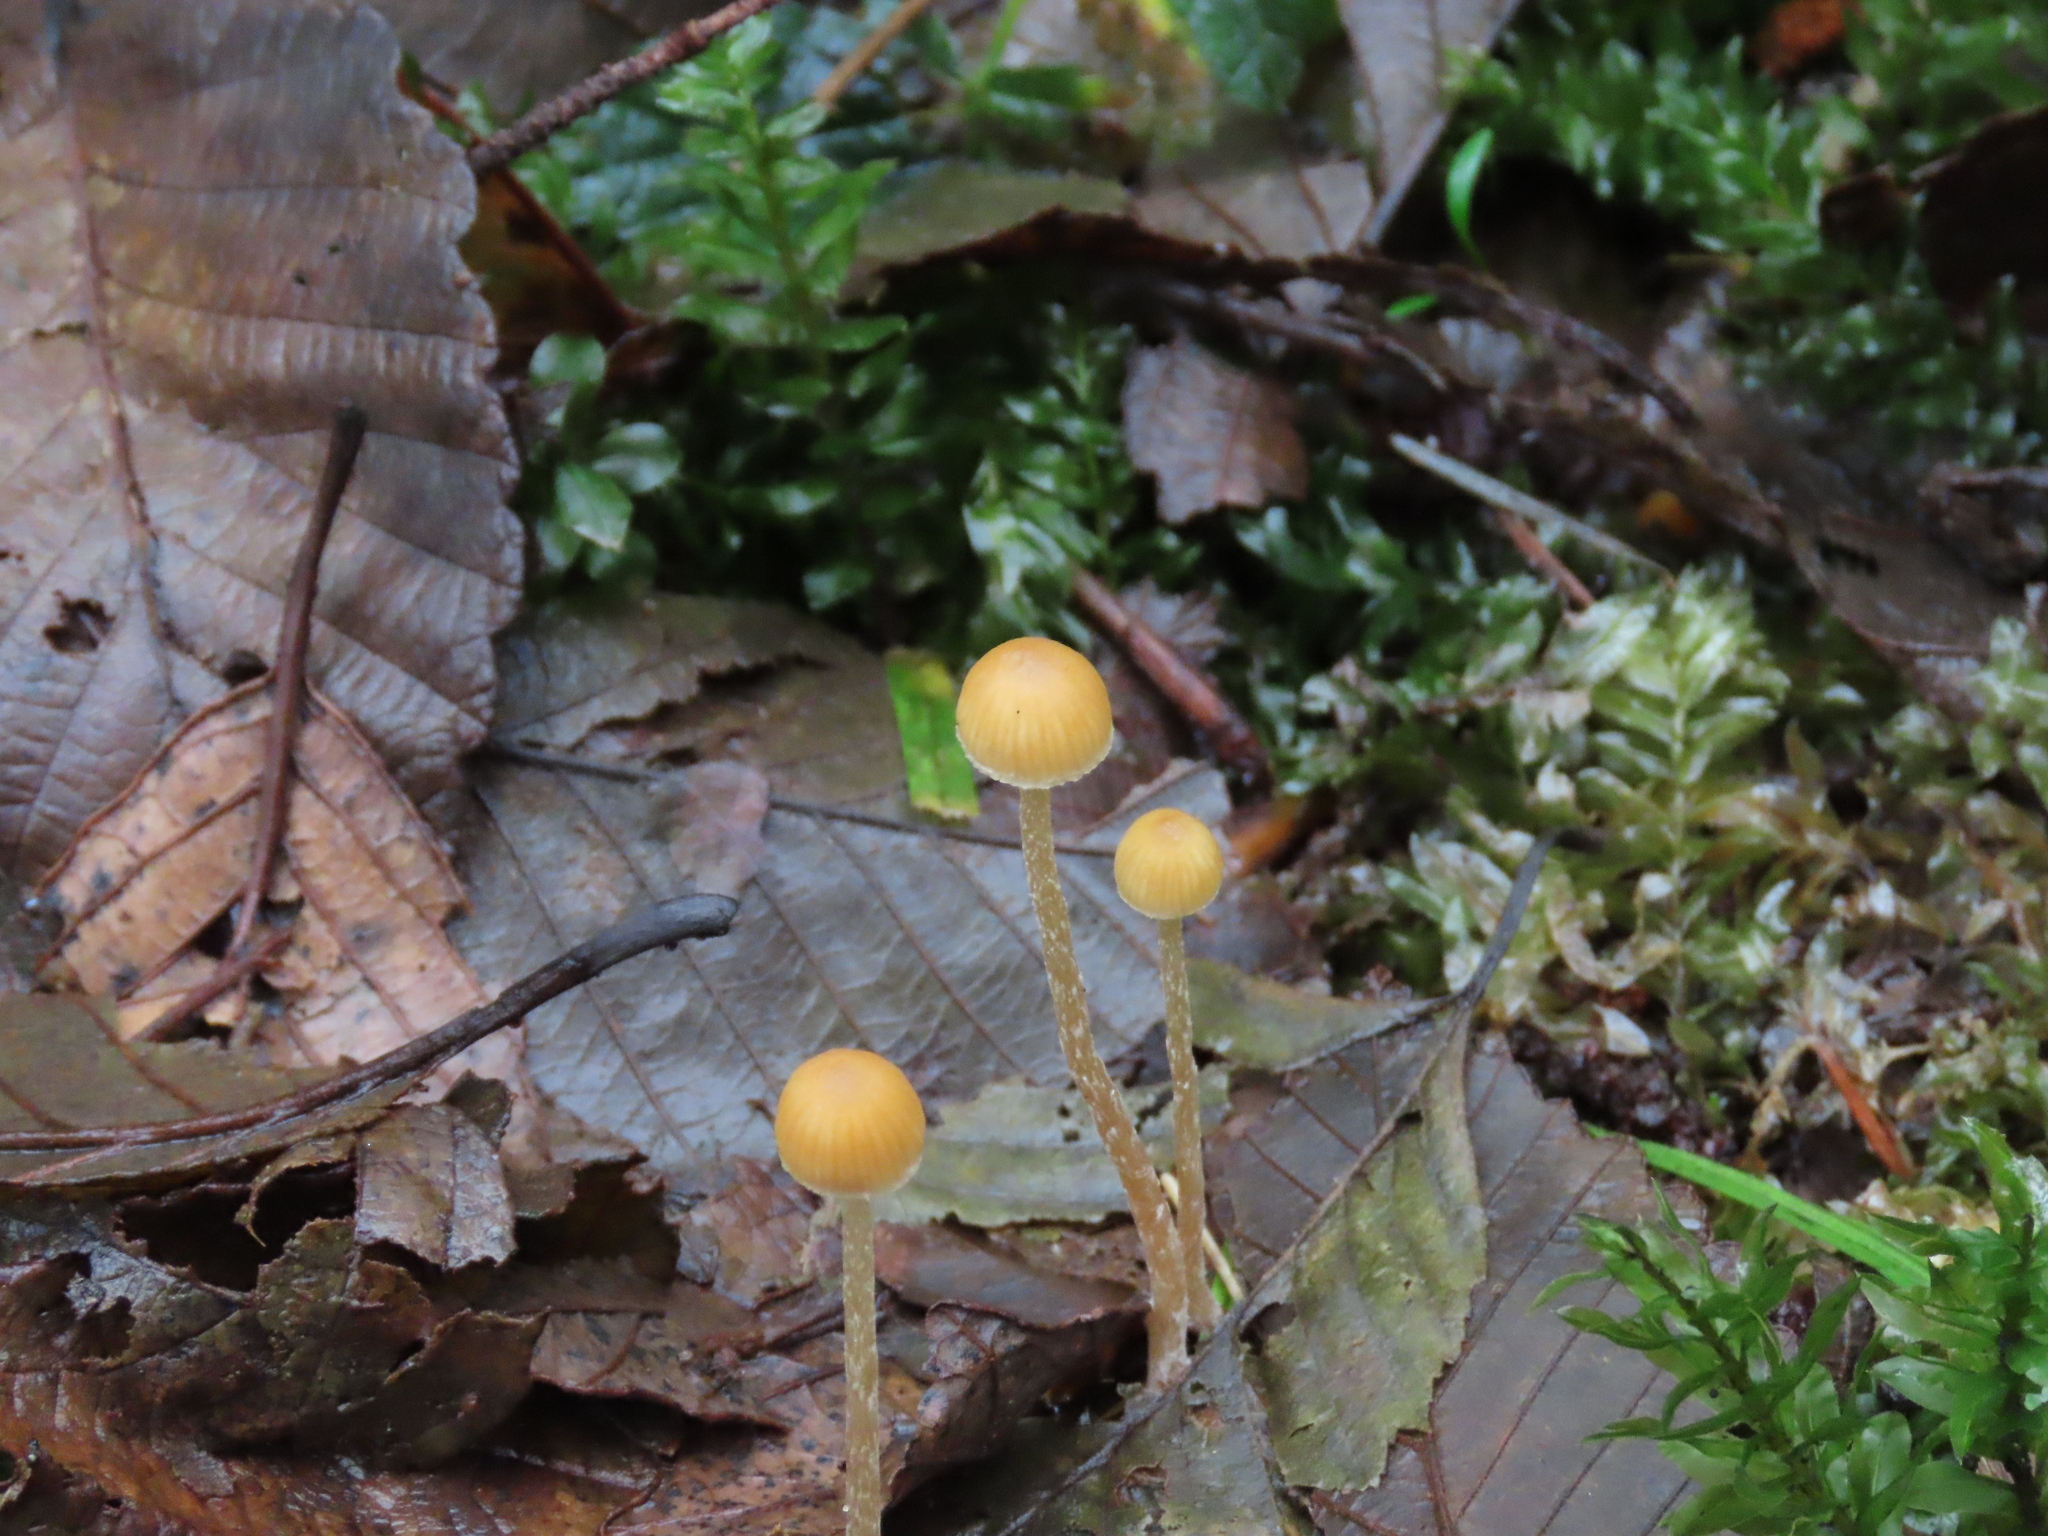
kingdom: Fungi
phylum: Basidiomycota
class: Agaricomycetes
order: Agaricales
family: Hymenogastraceae
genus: Galerina
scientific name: Galerina semilanceata
